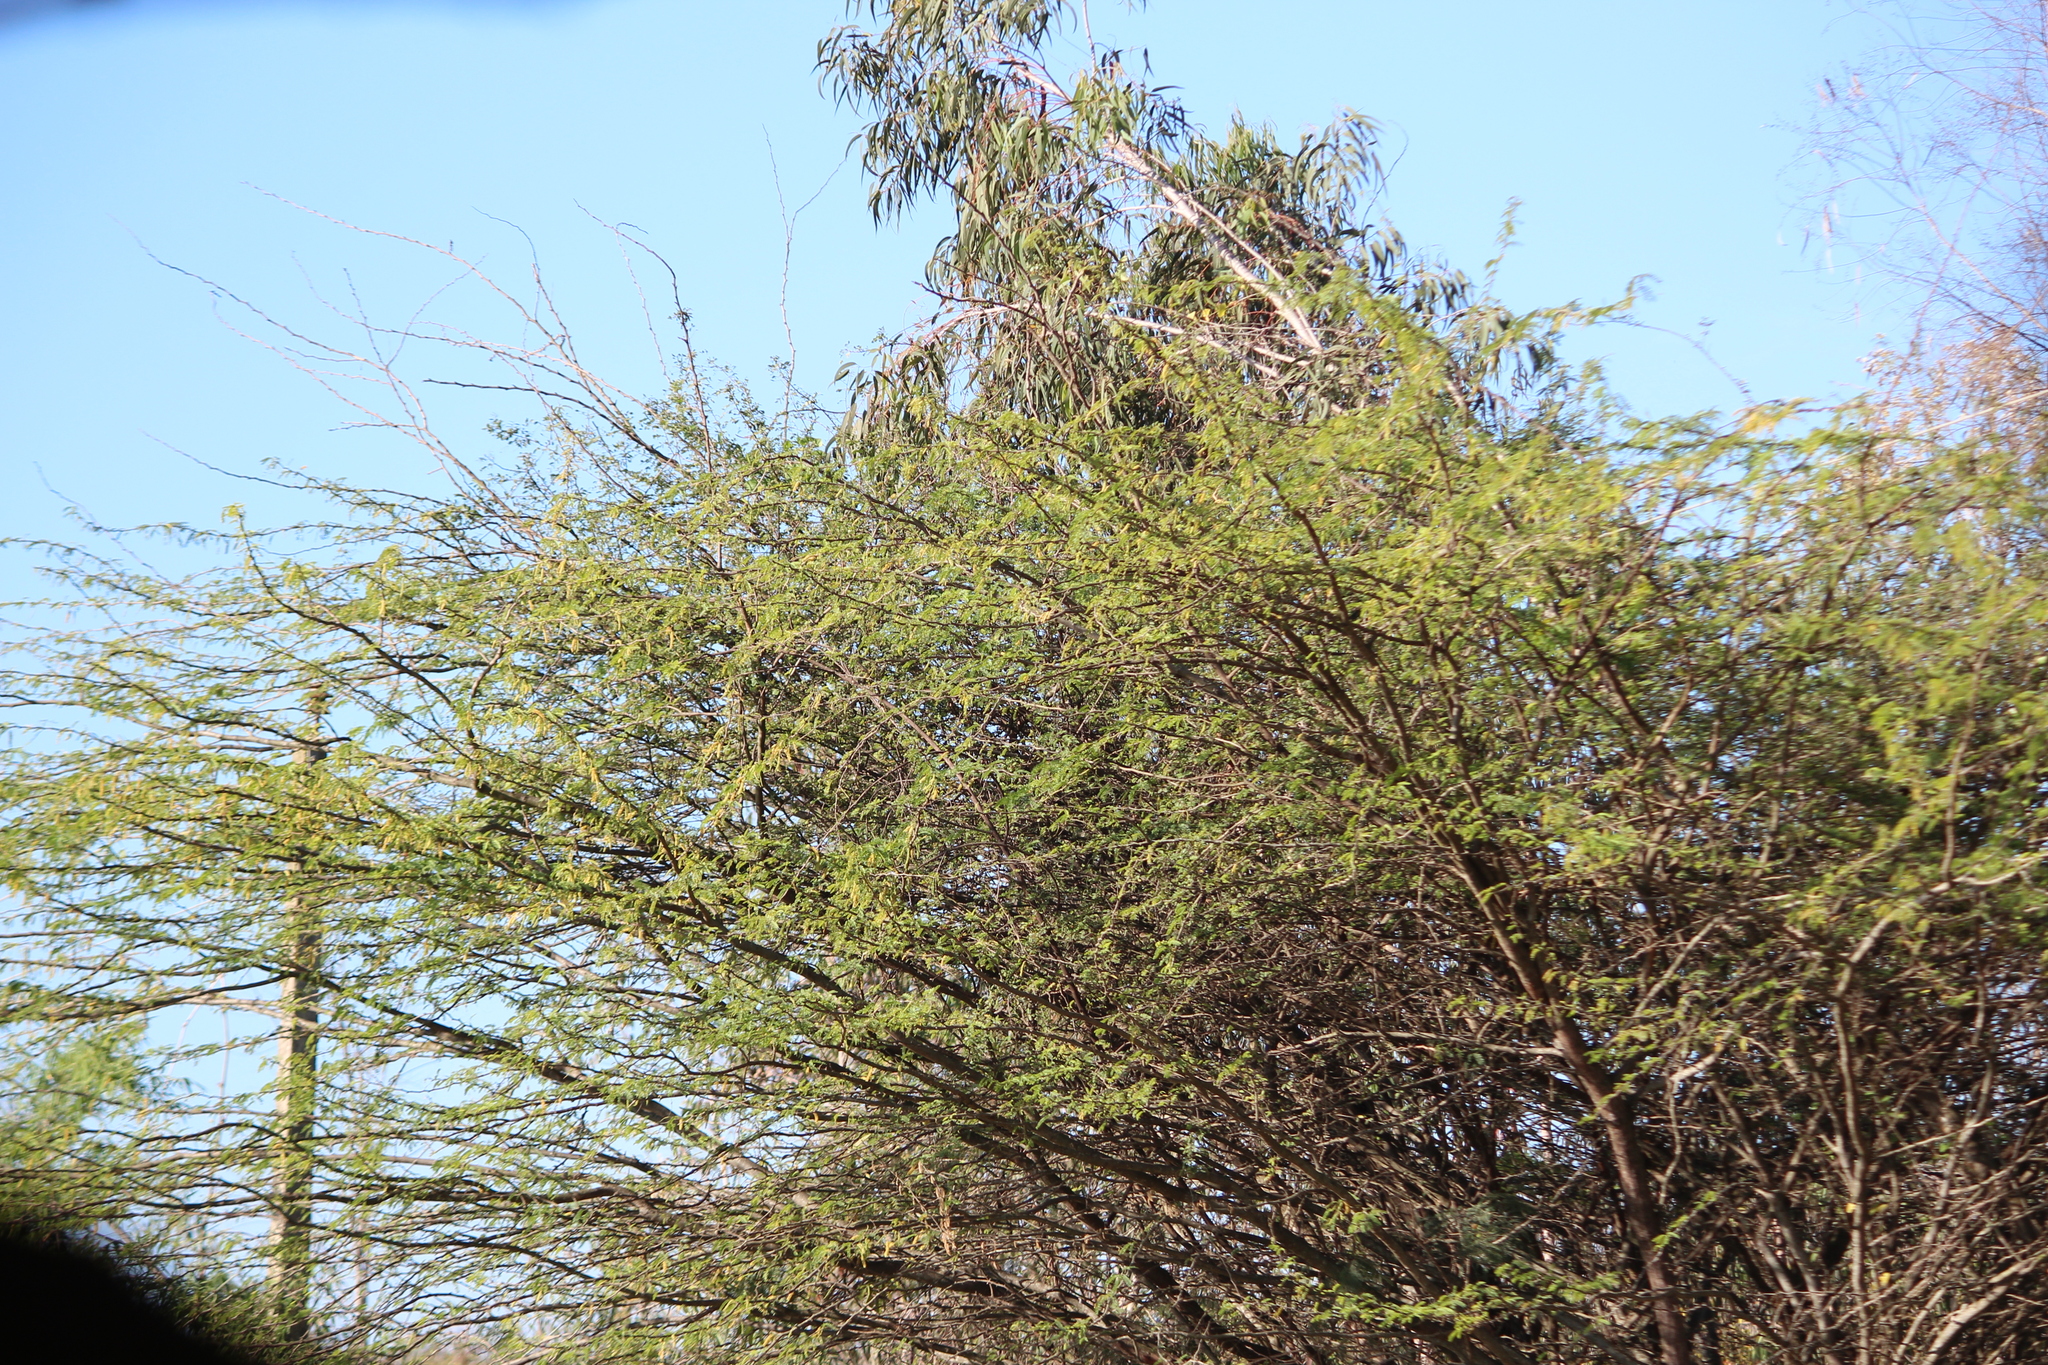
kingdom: Plantae
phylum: Tracheophyta
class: Magnoliopsida
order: Fabales
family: Fabaceae
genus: Prosopis
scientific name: Prosopis juliflora
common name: Mesquite
